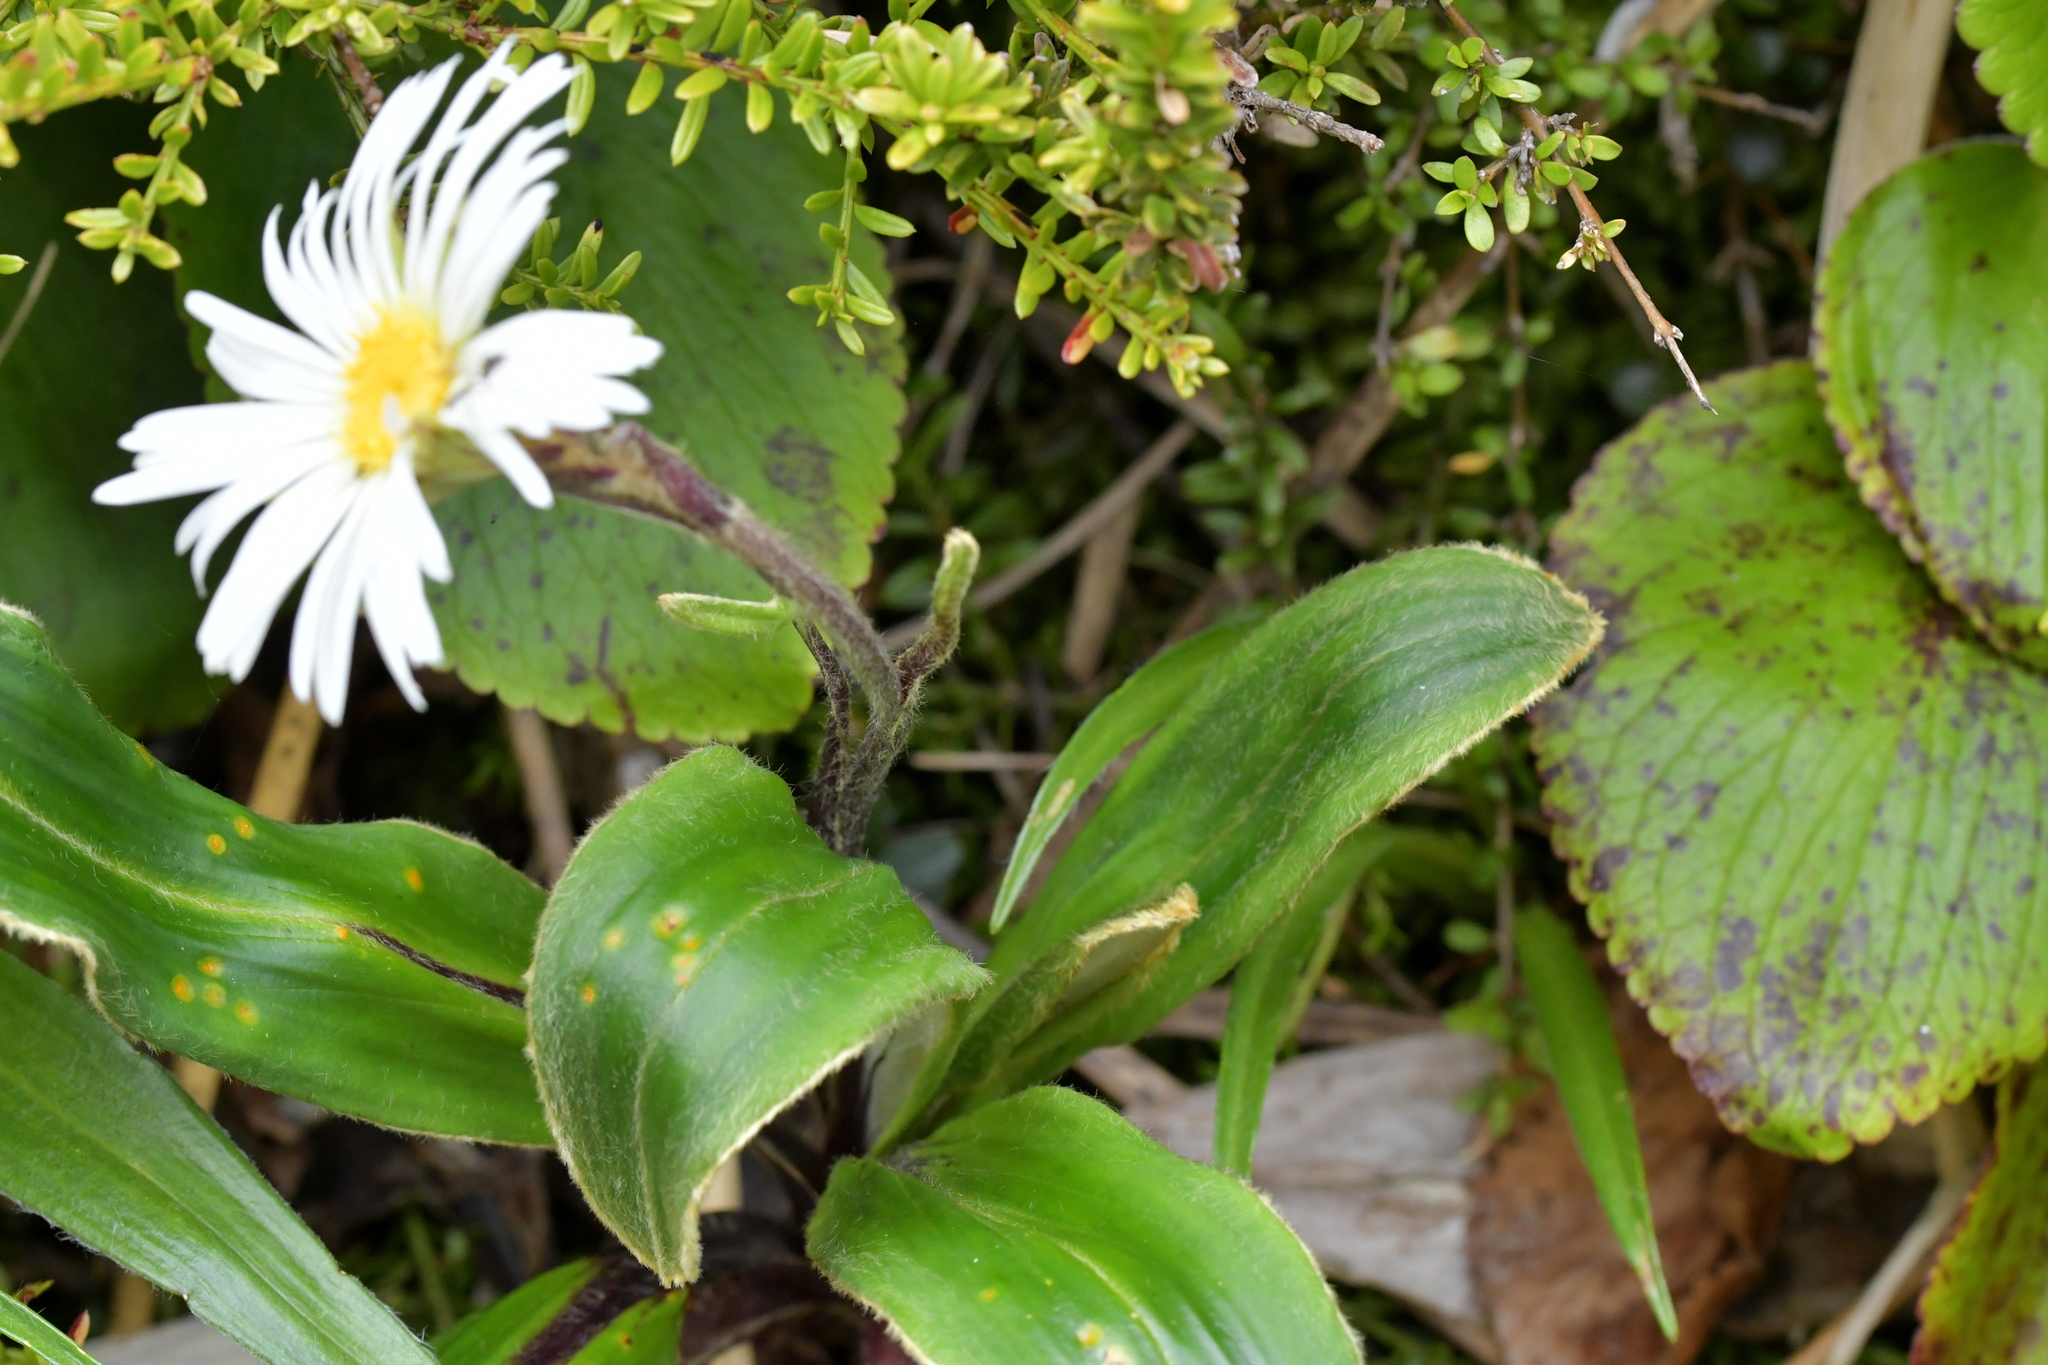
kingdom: Plantae
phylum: Tracheophyta
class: Magnoliopsida
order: Asterales
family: Asteraceae
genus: Celmisia
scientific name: Celmisia verbascifolia
